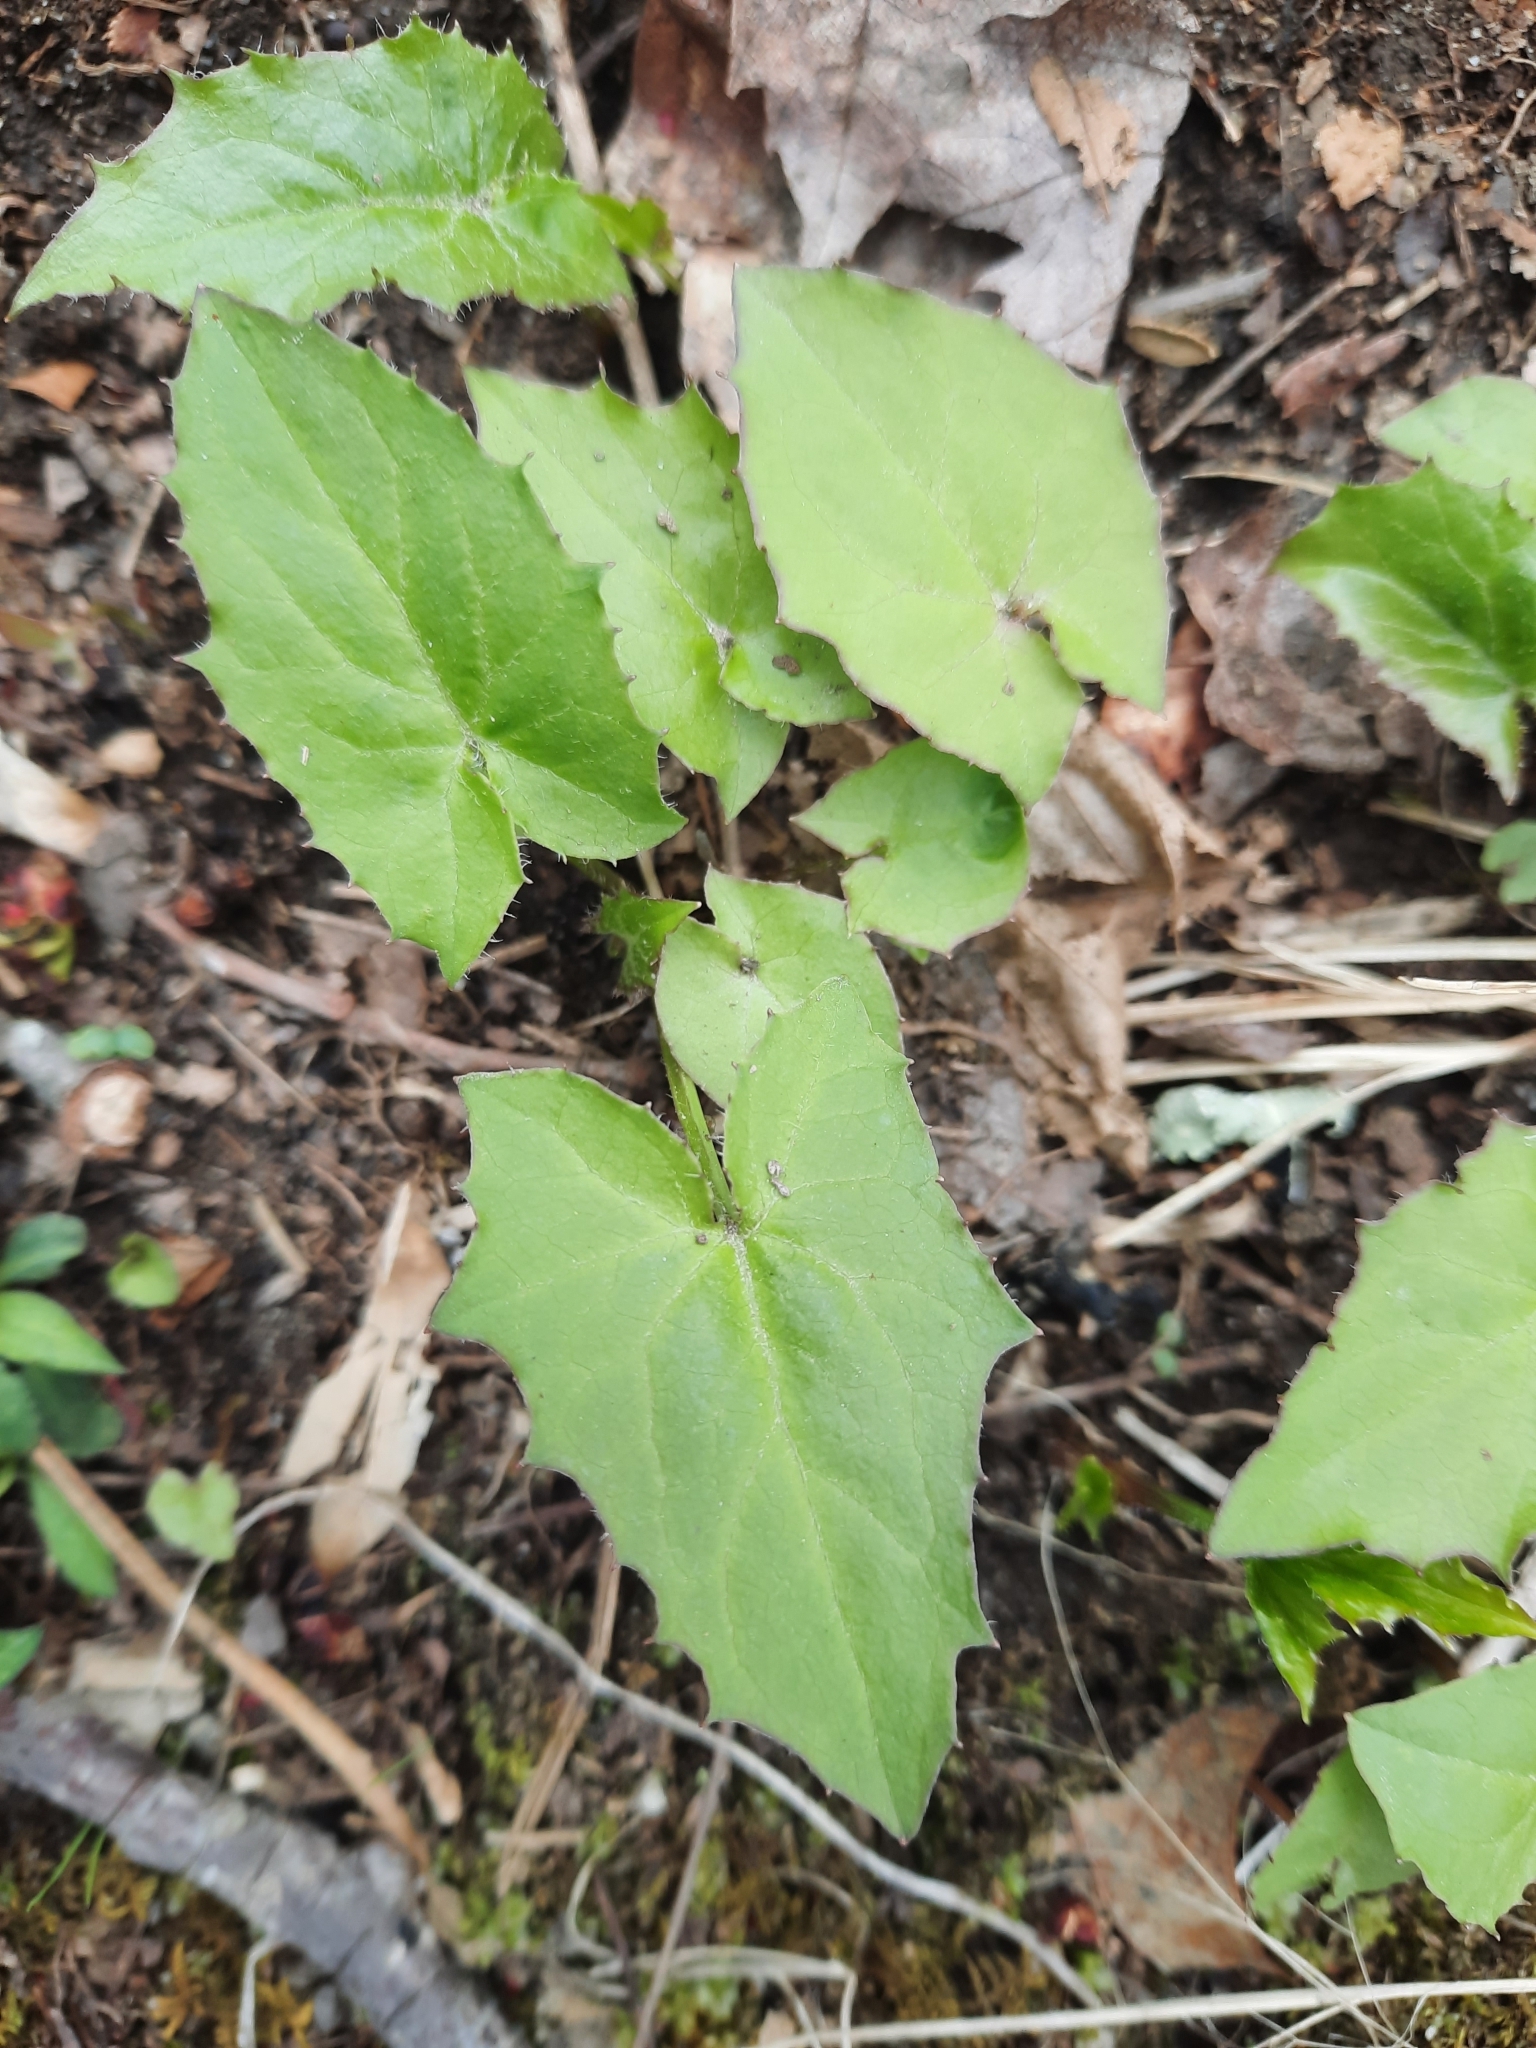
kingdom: Plantae
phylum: Tracheophyta
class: Magnoliopsida
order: Asterales
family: Asteraceae
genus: Nabalus
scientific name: Nabalus
